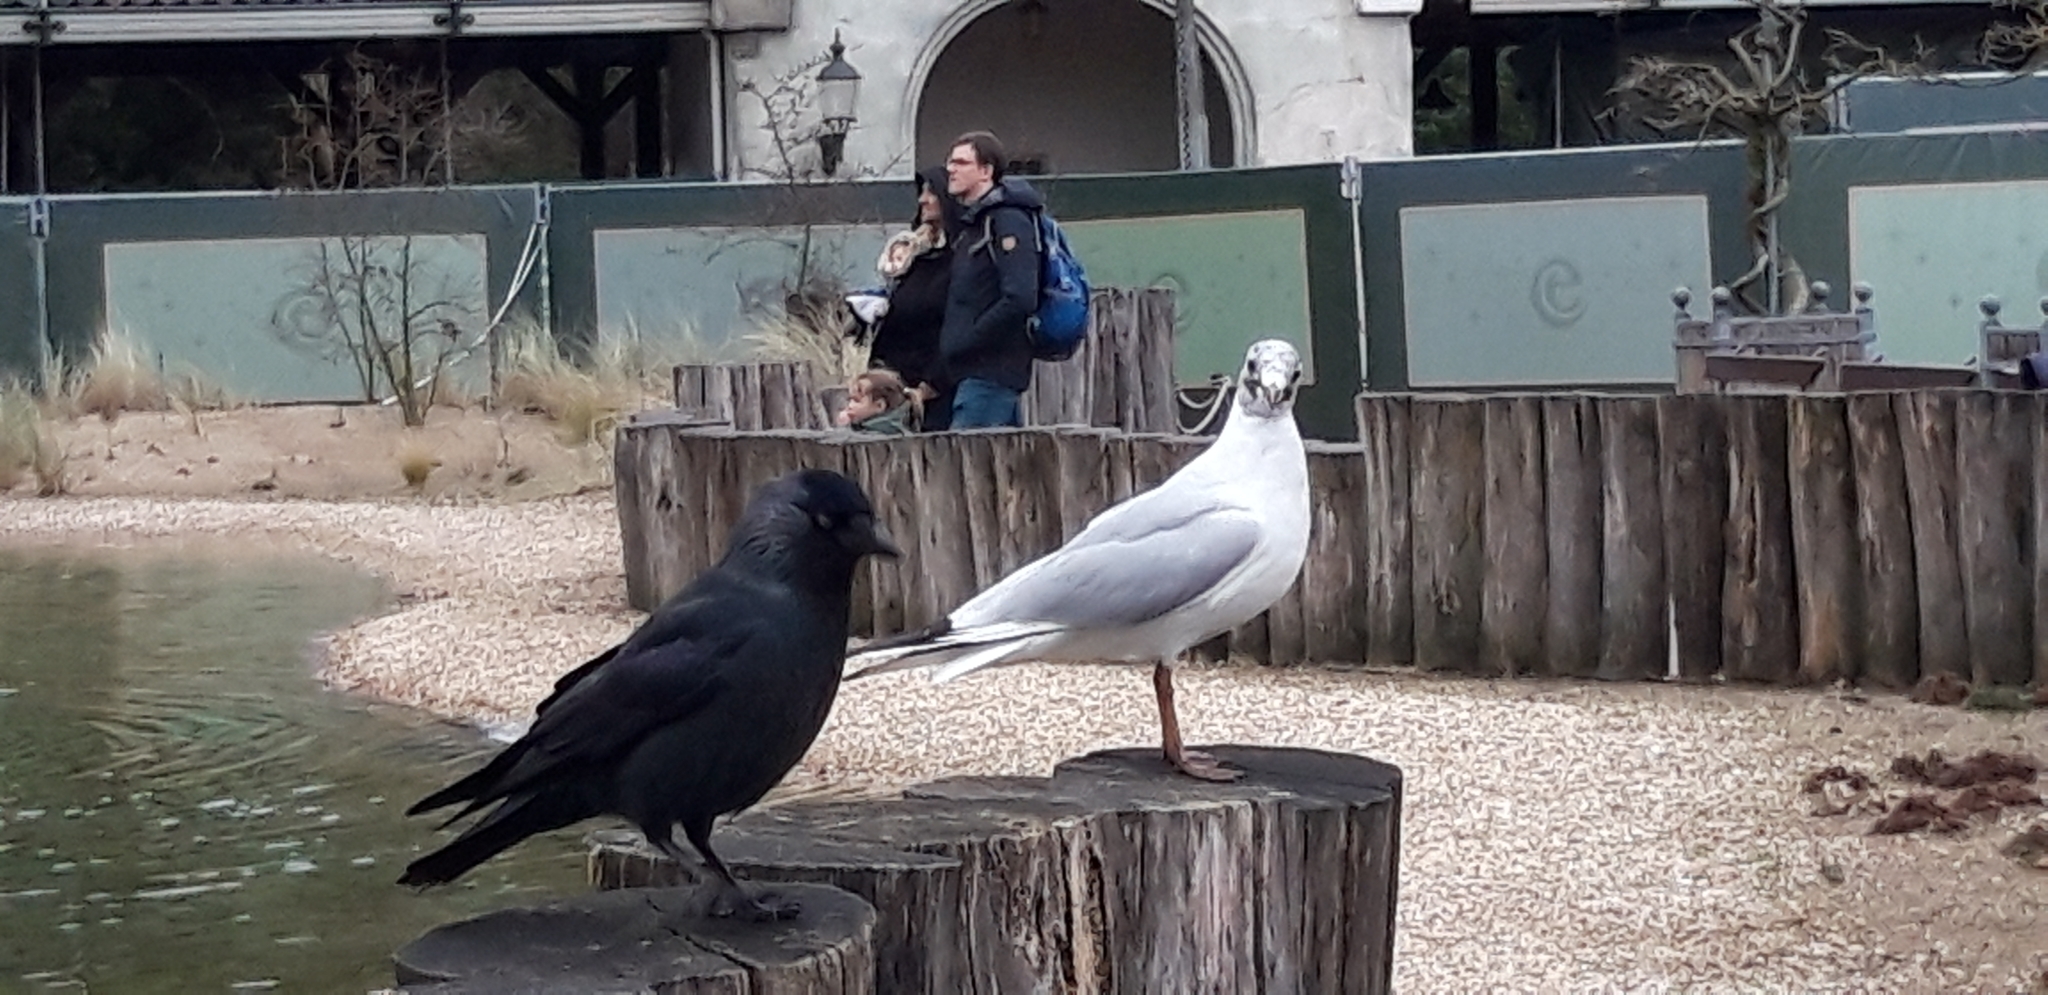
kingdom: Animalia
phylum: Chordata
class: Aves
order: Charadriiformes
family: Laridae
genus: Chroicocephalus
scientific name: Chroicocephalus ridibundus
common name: Black-headed gull
